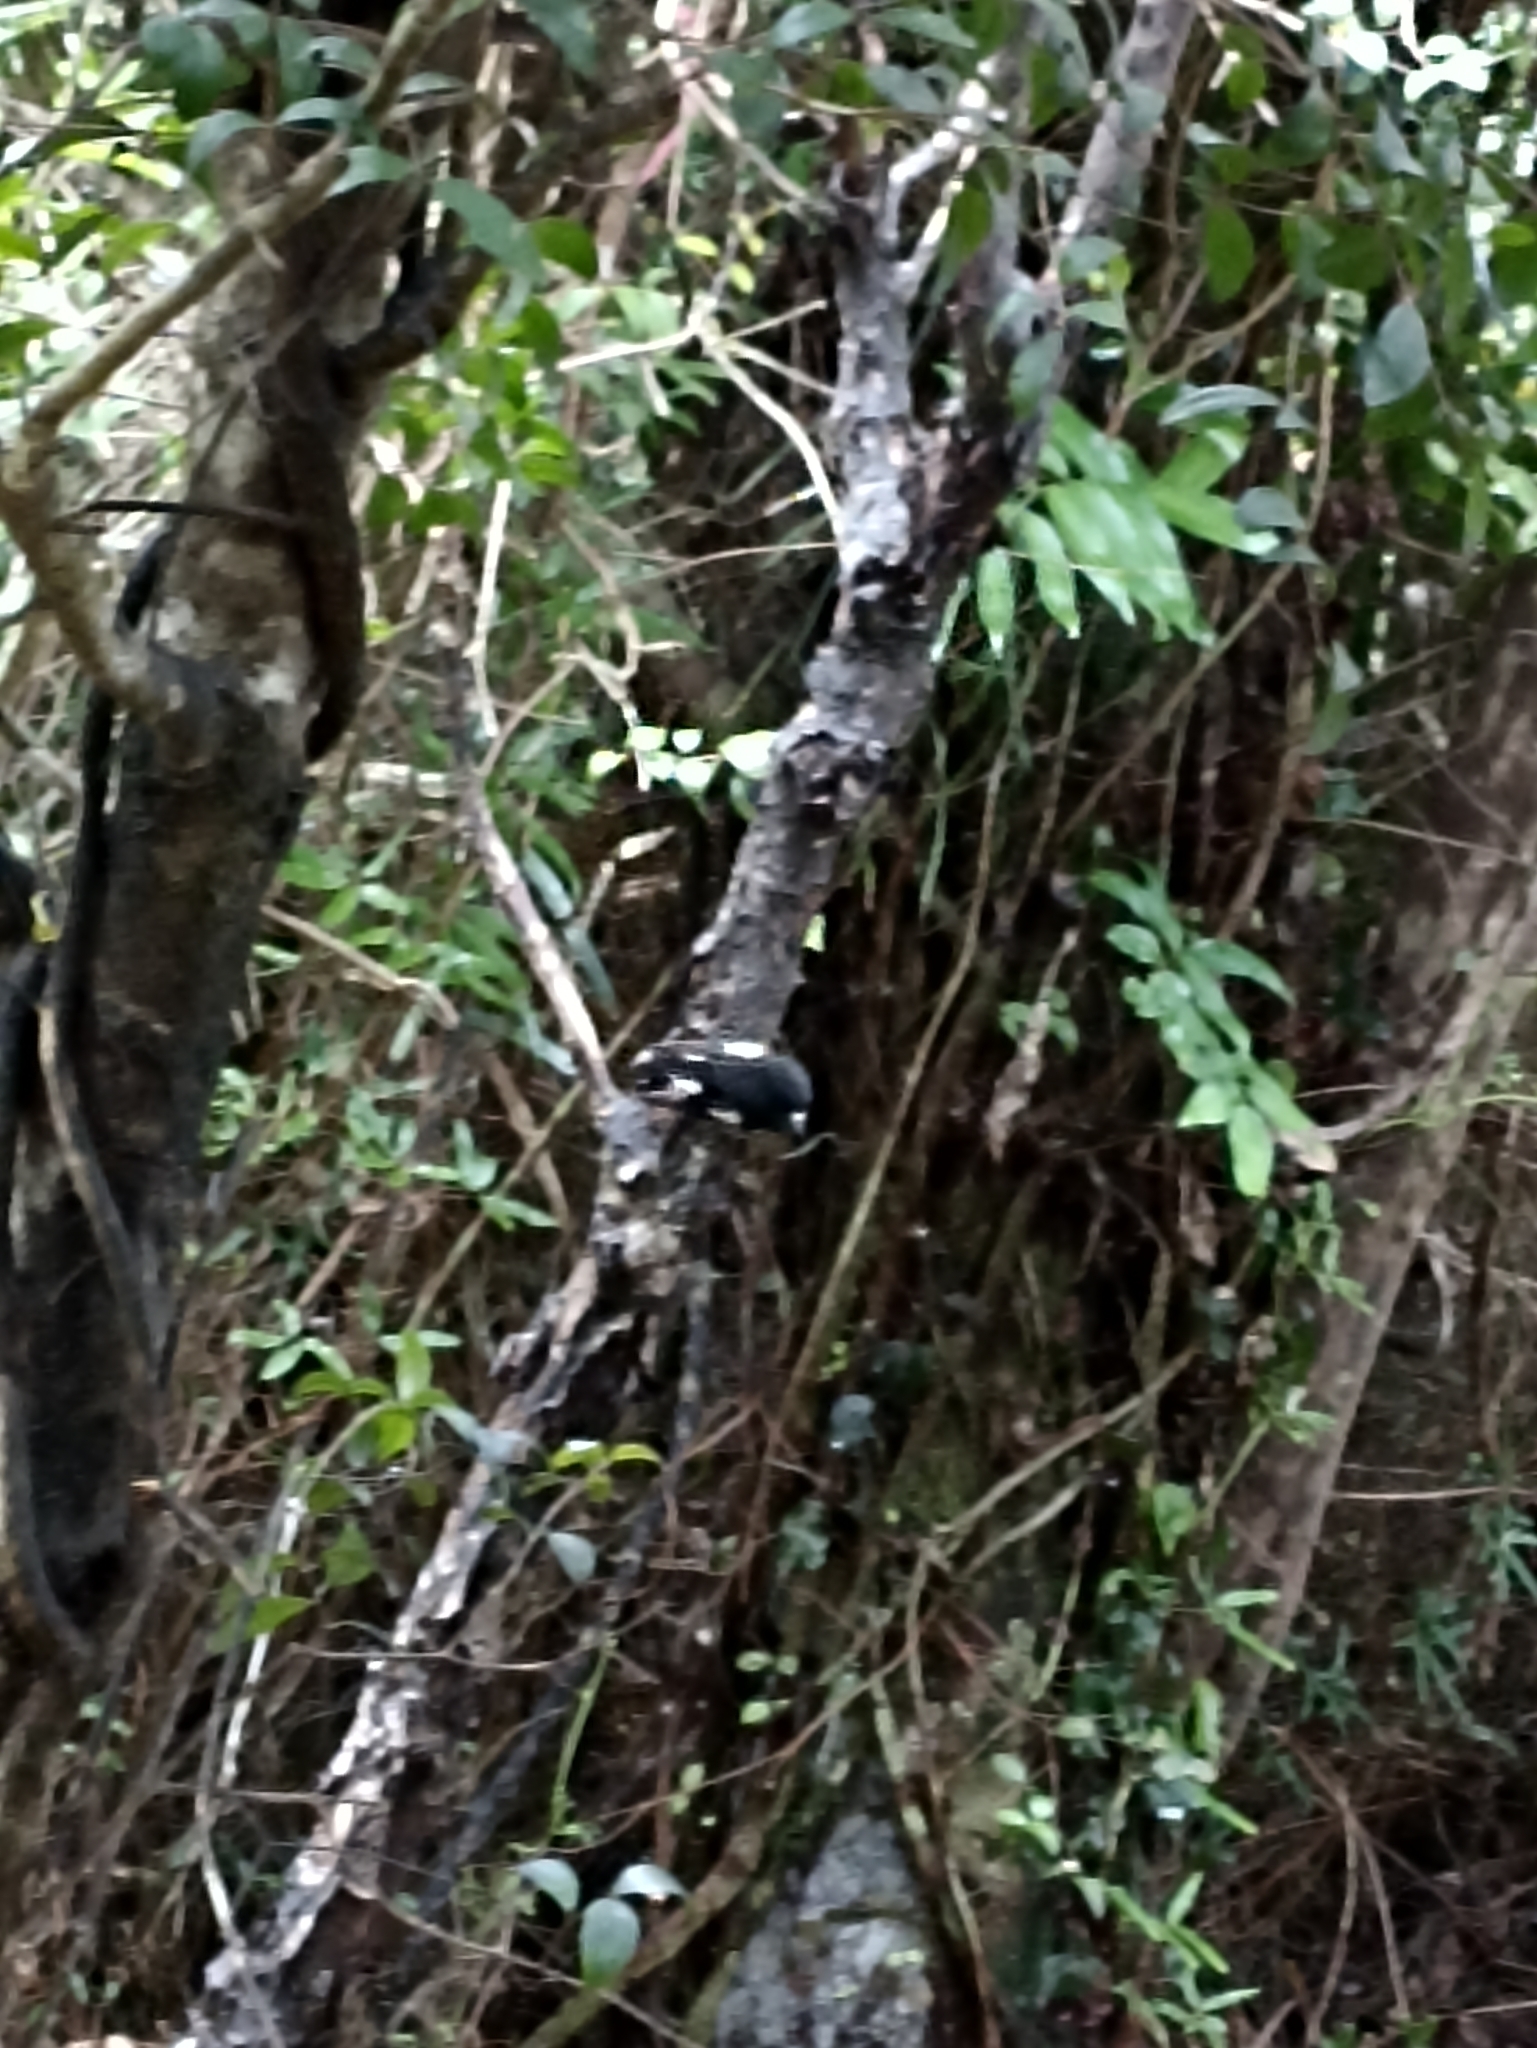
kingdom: Animalia
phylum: Chordata
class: Aves
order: Passeriformes
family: Petroicidae
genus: Petroica
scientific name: Petroica macrocephala
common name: Tomtit
